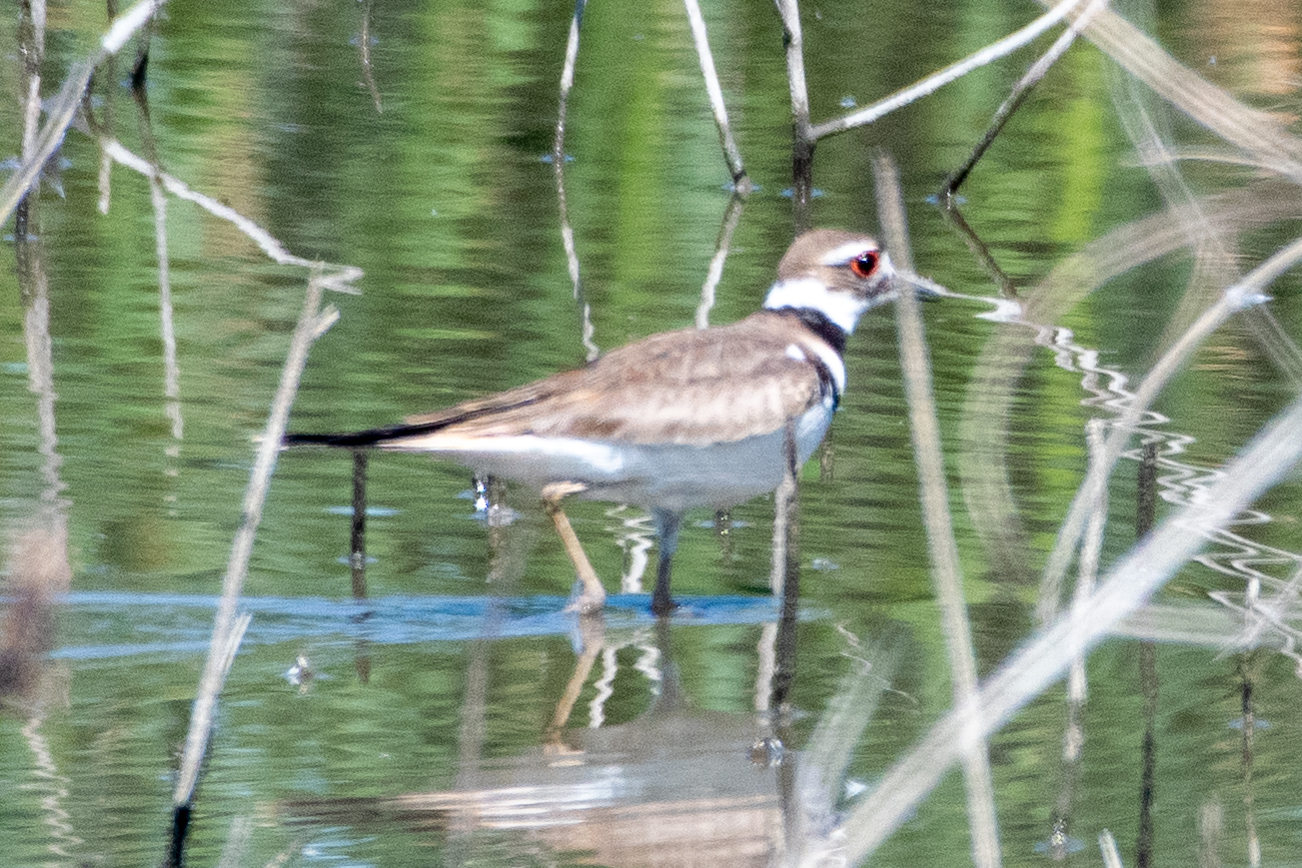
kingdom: Animalia
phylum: Chordata
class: Aves
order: Charadriiformes
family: Charadriidae
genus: Charadrius
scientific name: Charadrius vociferus
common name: Killdeer
